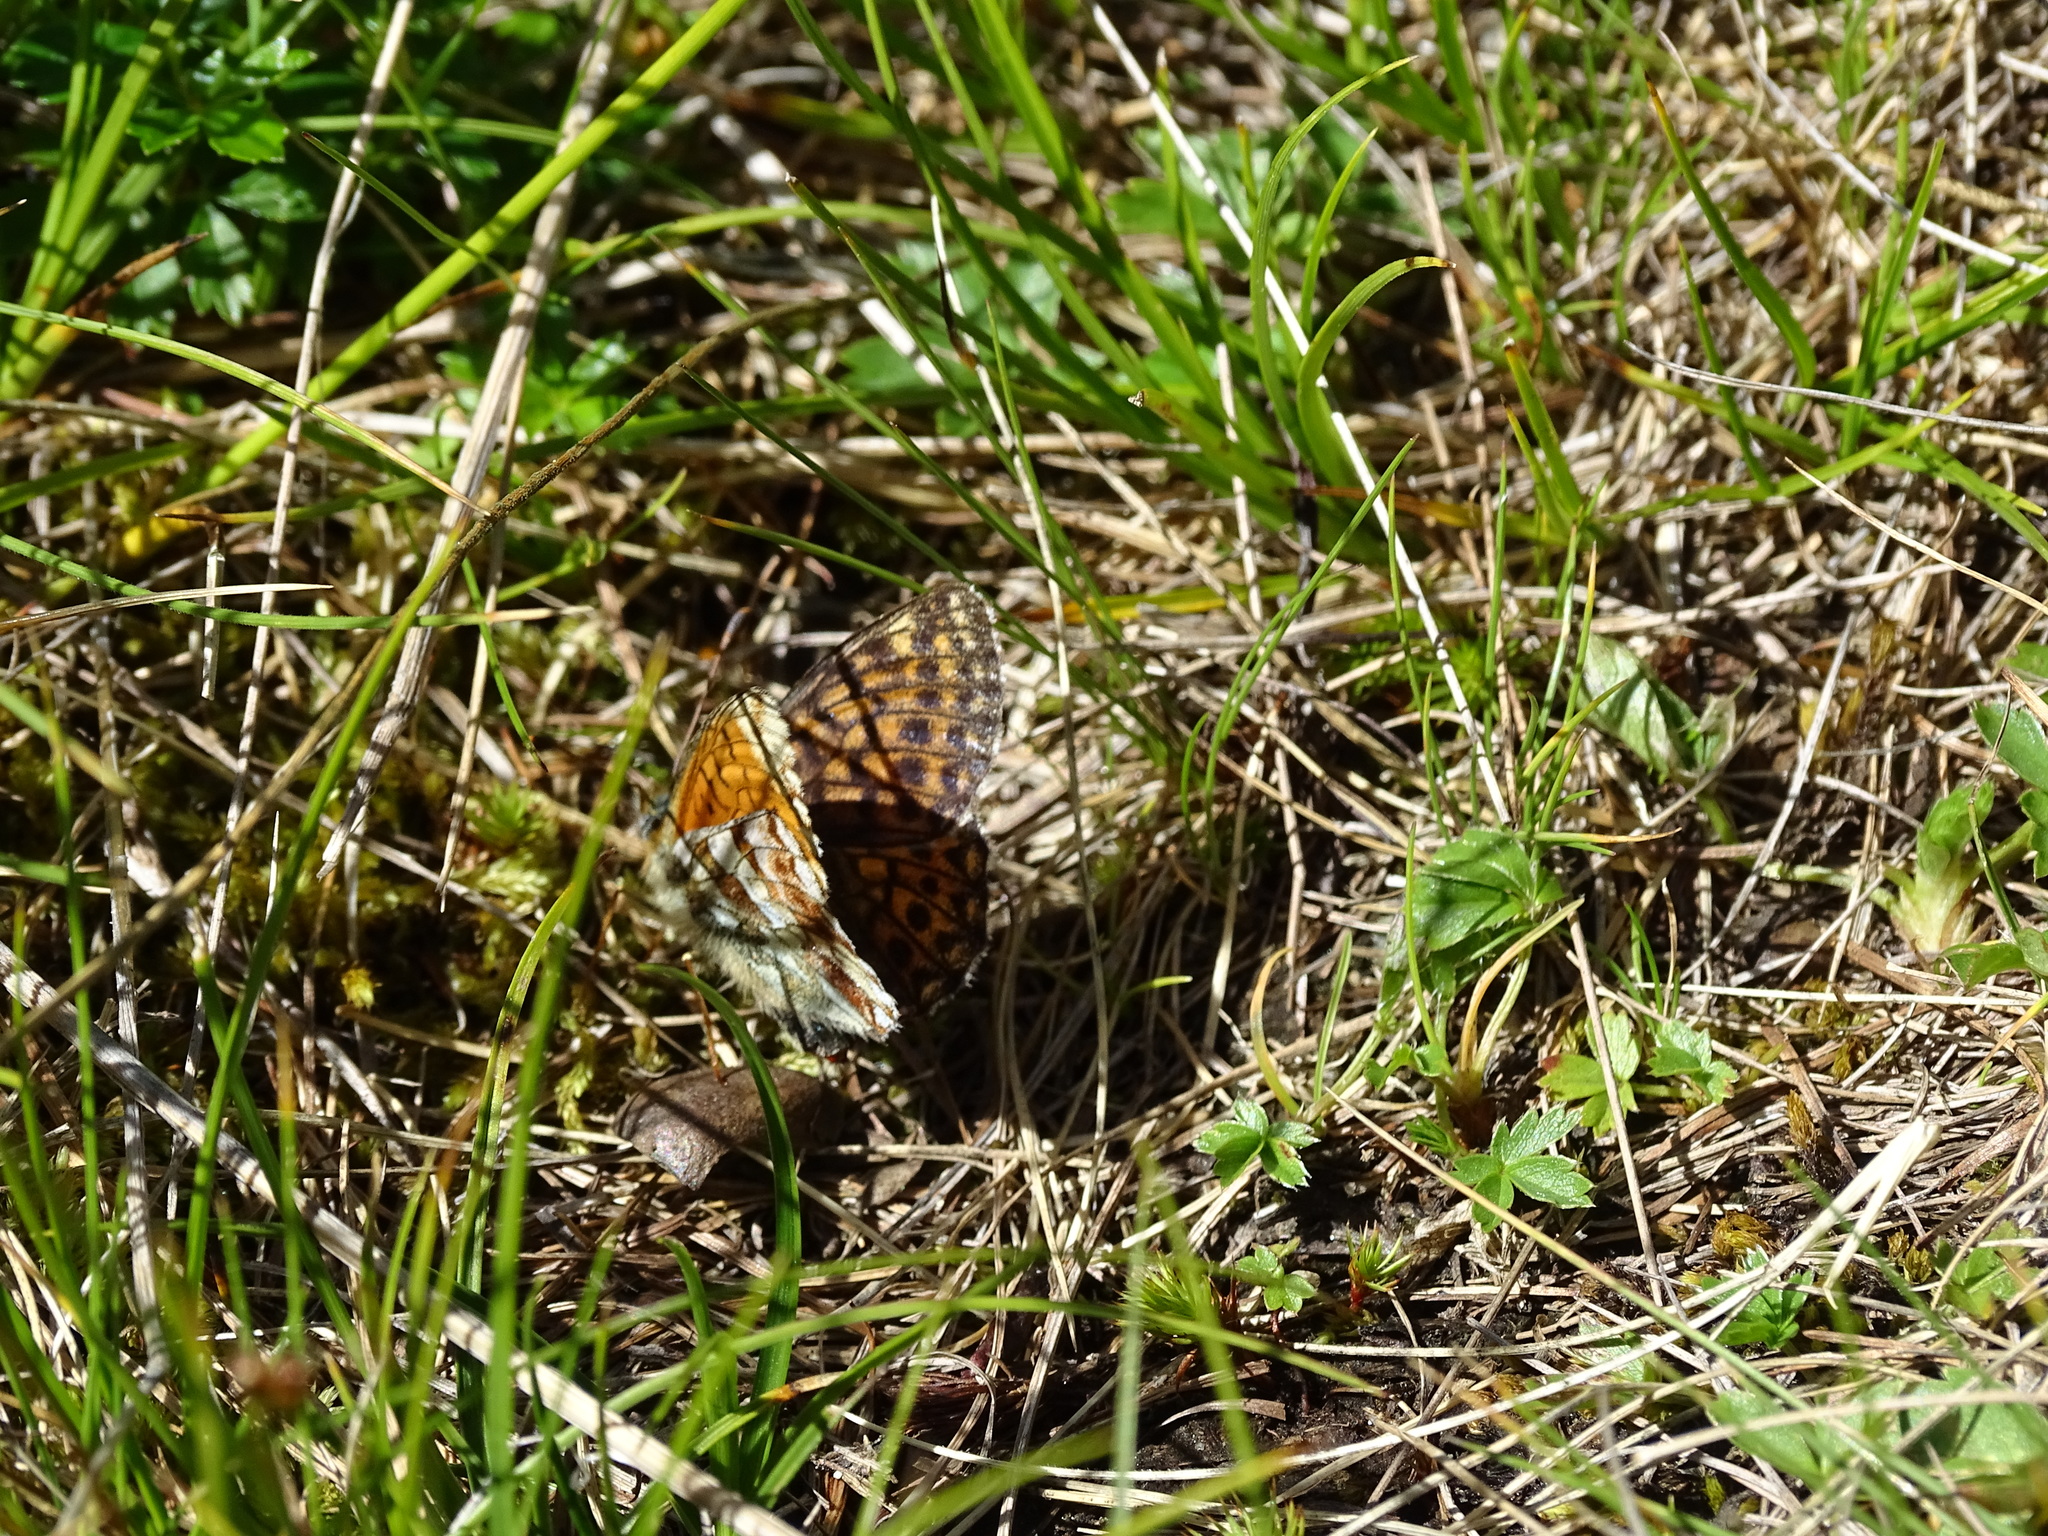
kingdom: Animalia
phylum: Arthropoda
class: Insecta
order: Lepidoptera
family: Nymphalidae
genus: Boloria
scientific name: Boloria napaea
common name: Mountain fritillary
